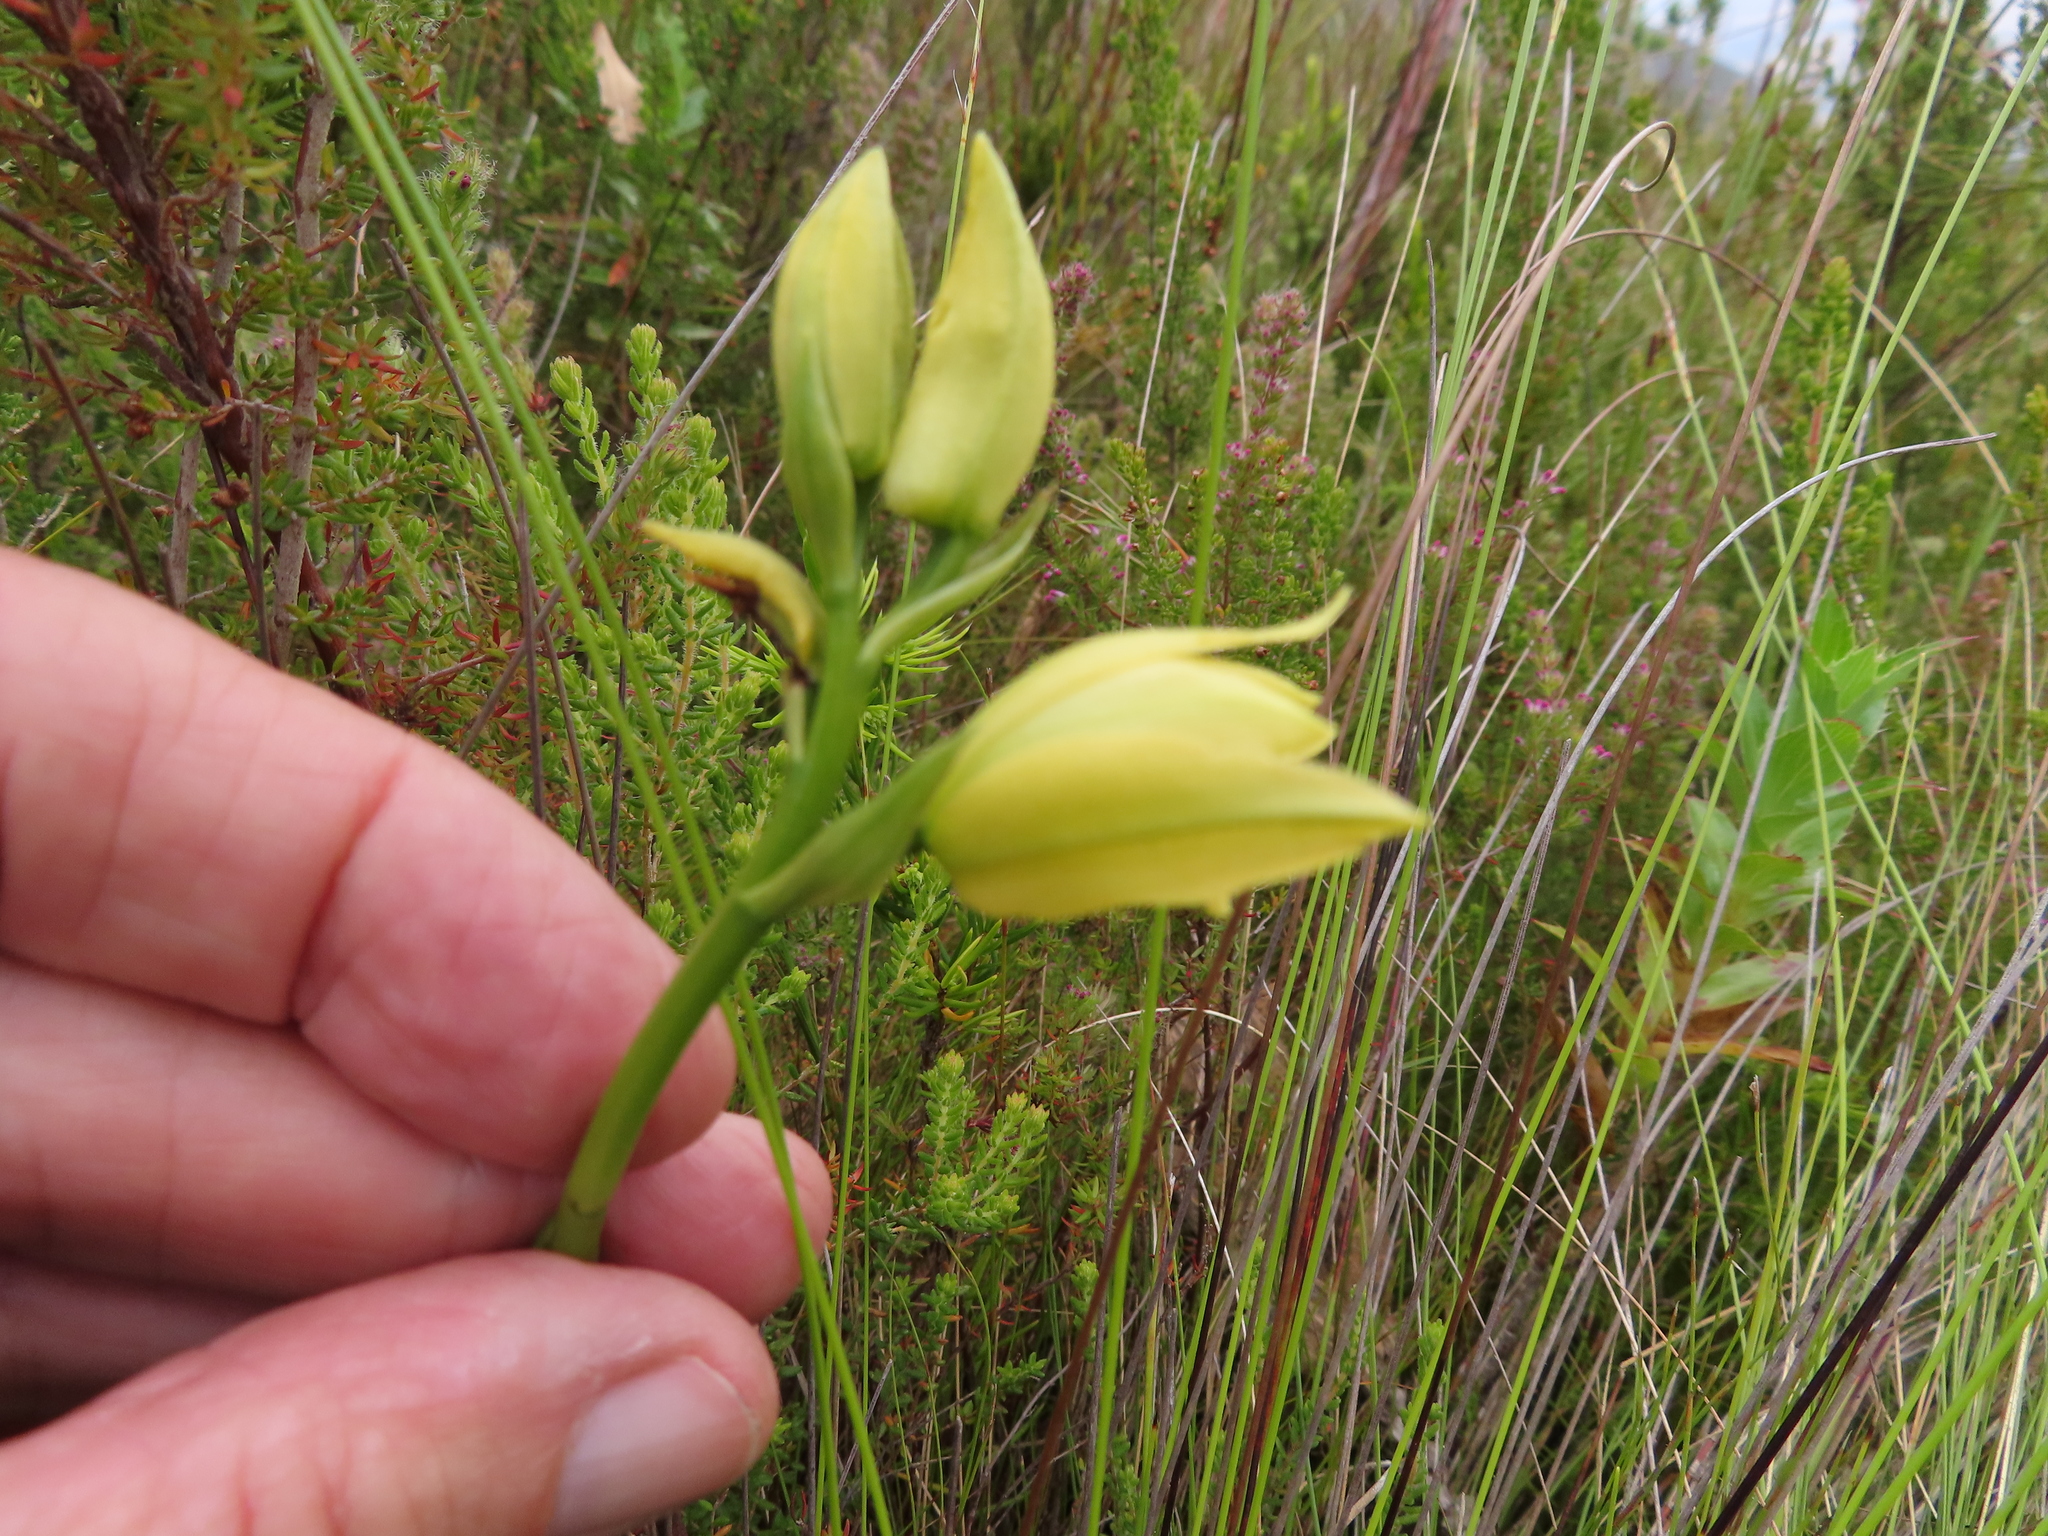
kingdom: Plantae
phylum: Tracheophyta
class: Liliopsida
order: Asparagales
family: Orchidaceae
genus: Eulophia
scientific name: Eulophia tabularis
